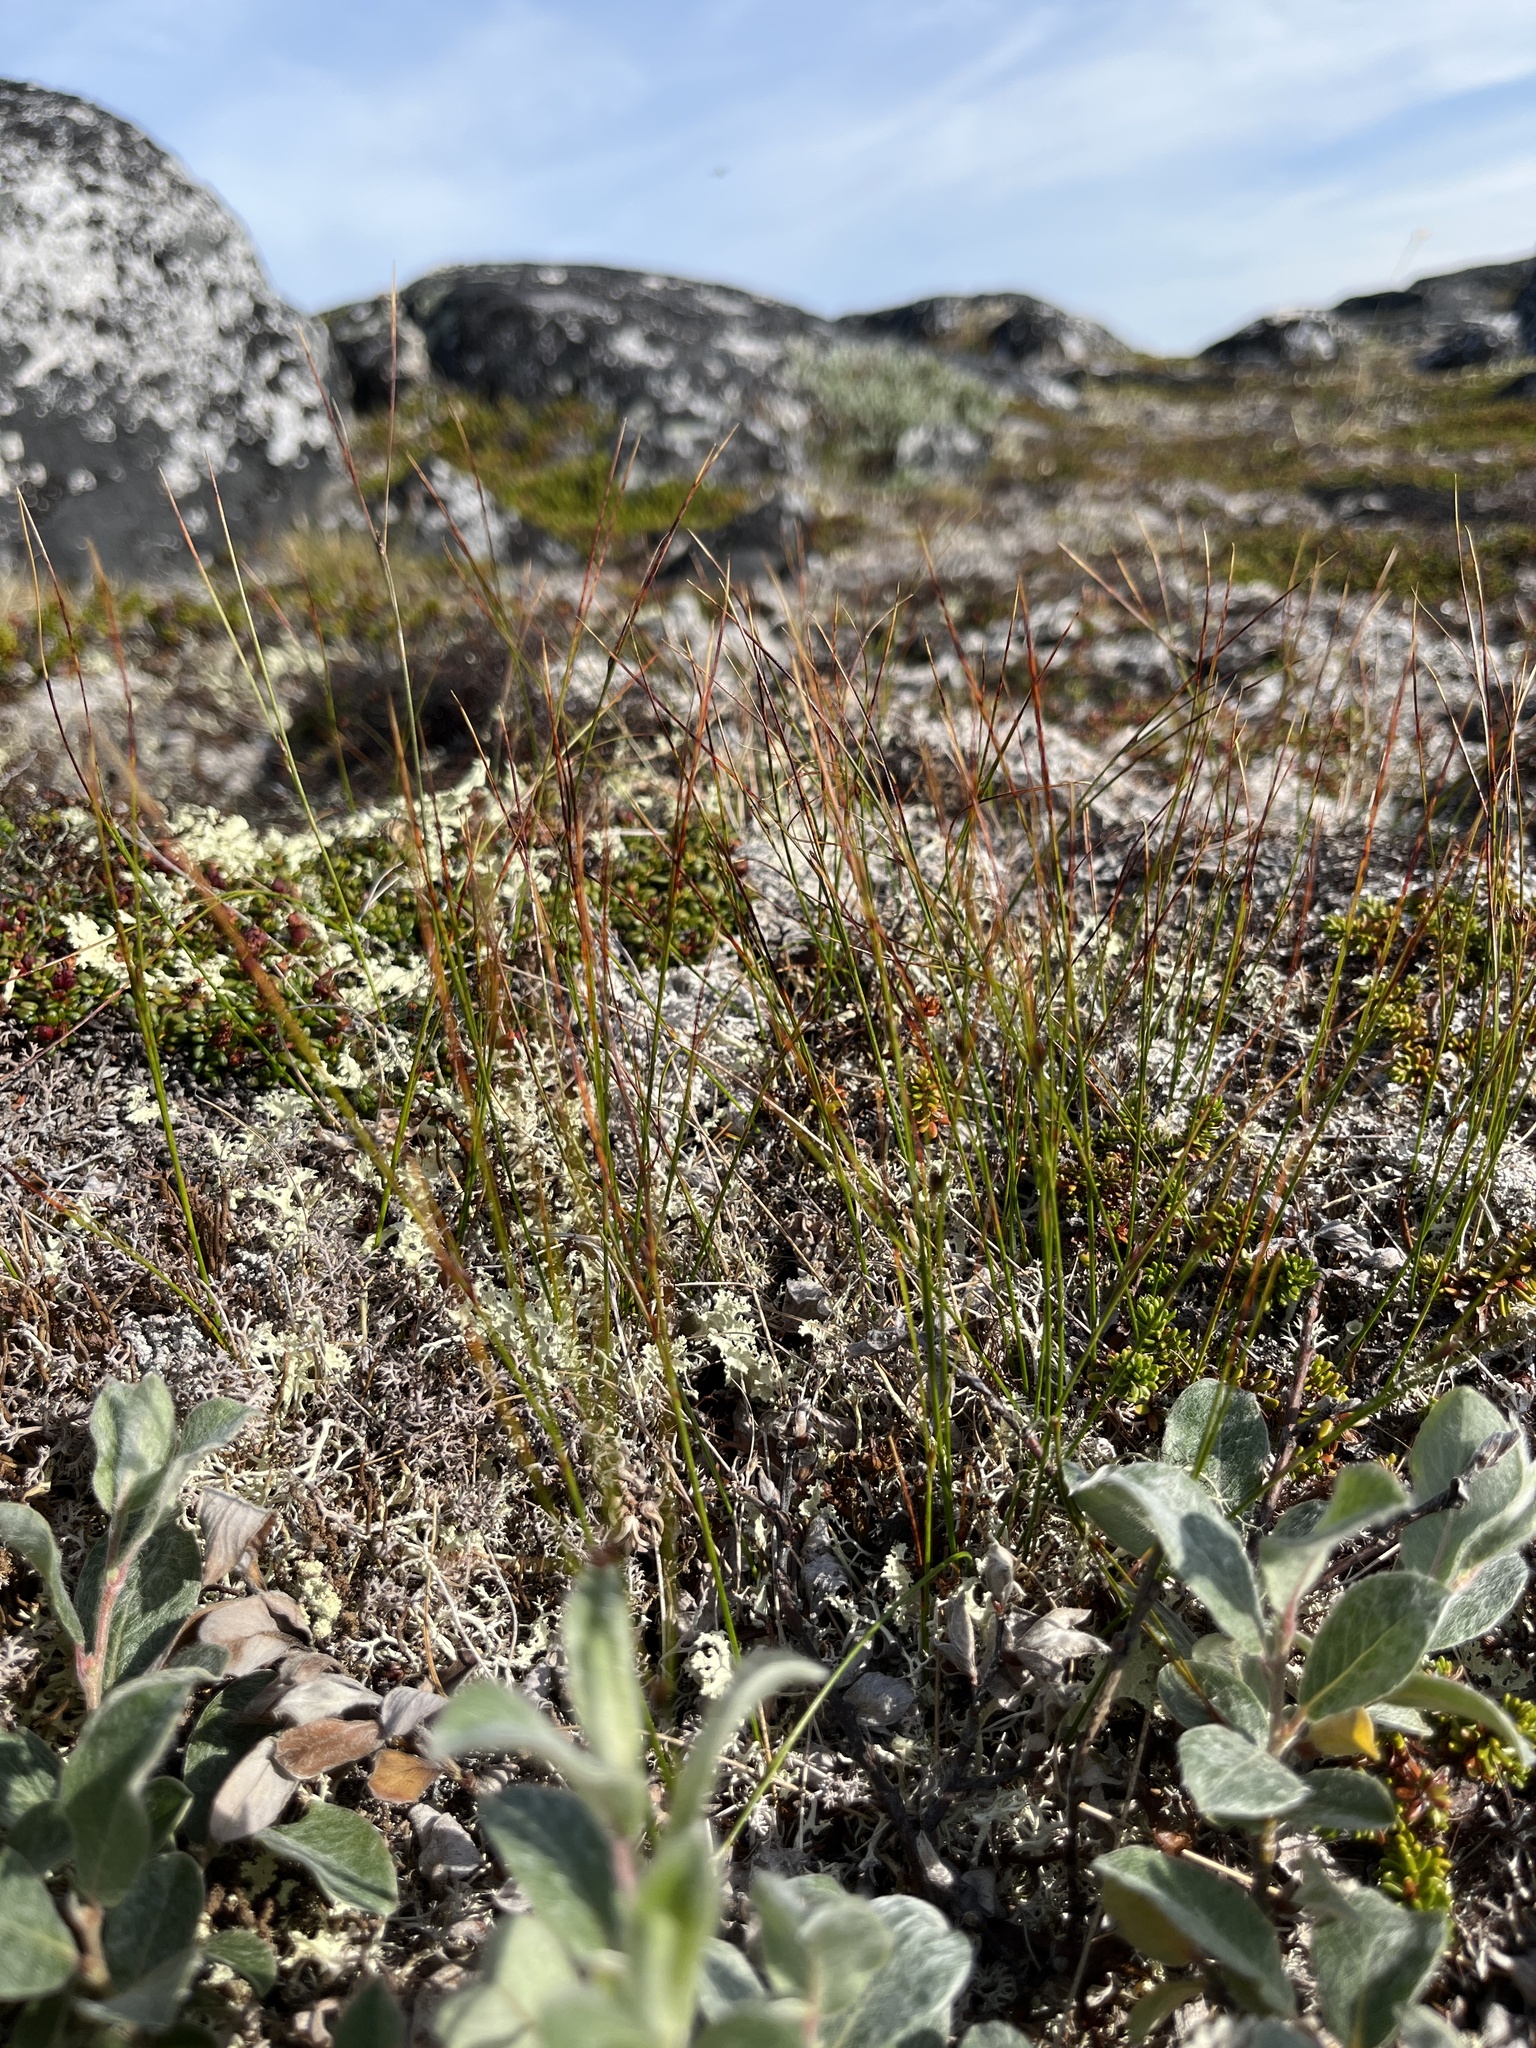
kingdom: Plantae
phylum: Tracheophyta
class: Liliopsida
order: Poales
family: Juncaceae
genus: Oreojuncus
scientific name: Oreojuncus trifidus
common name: Highland rush
